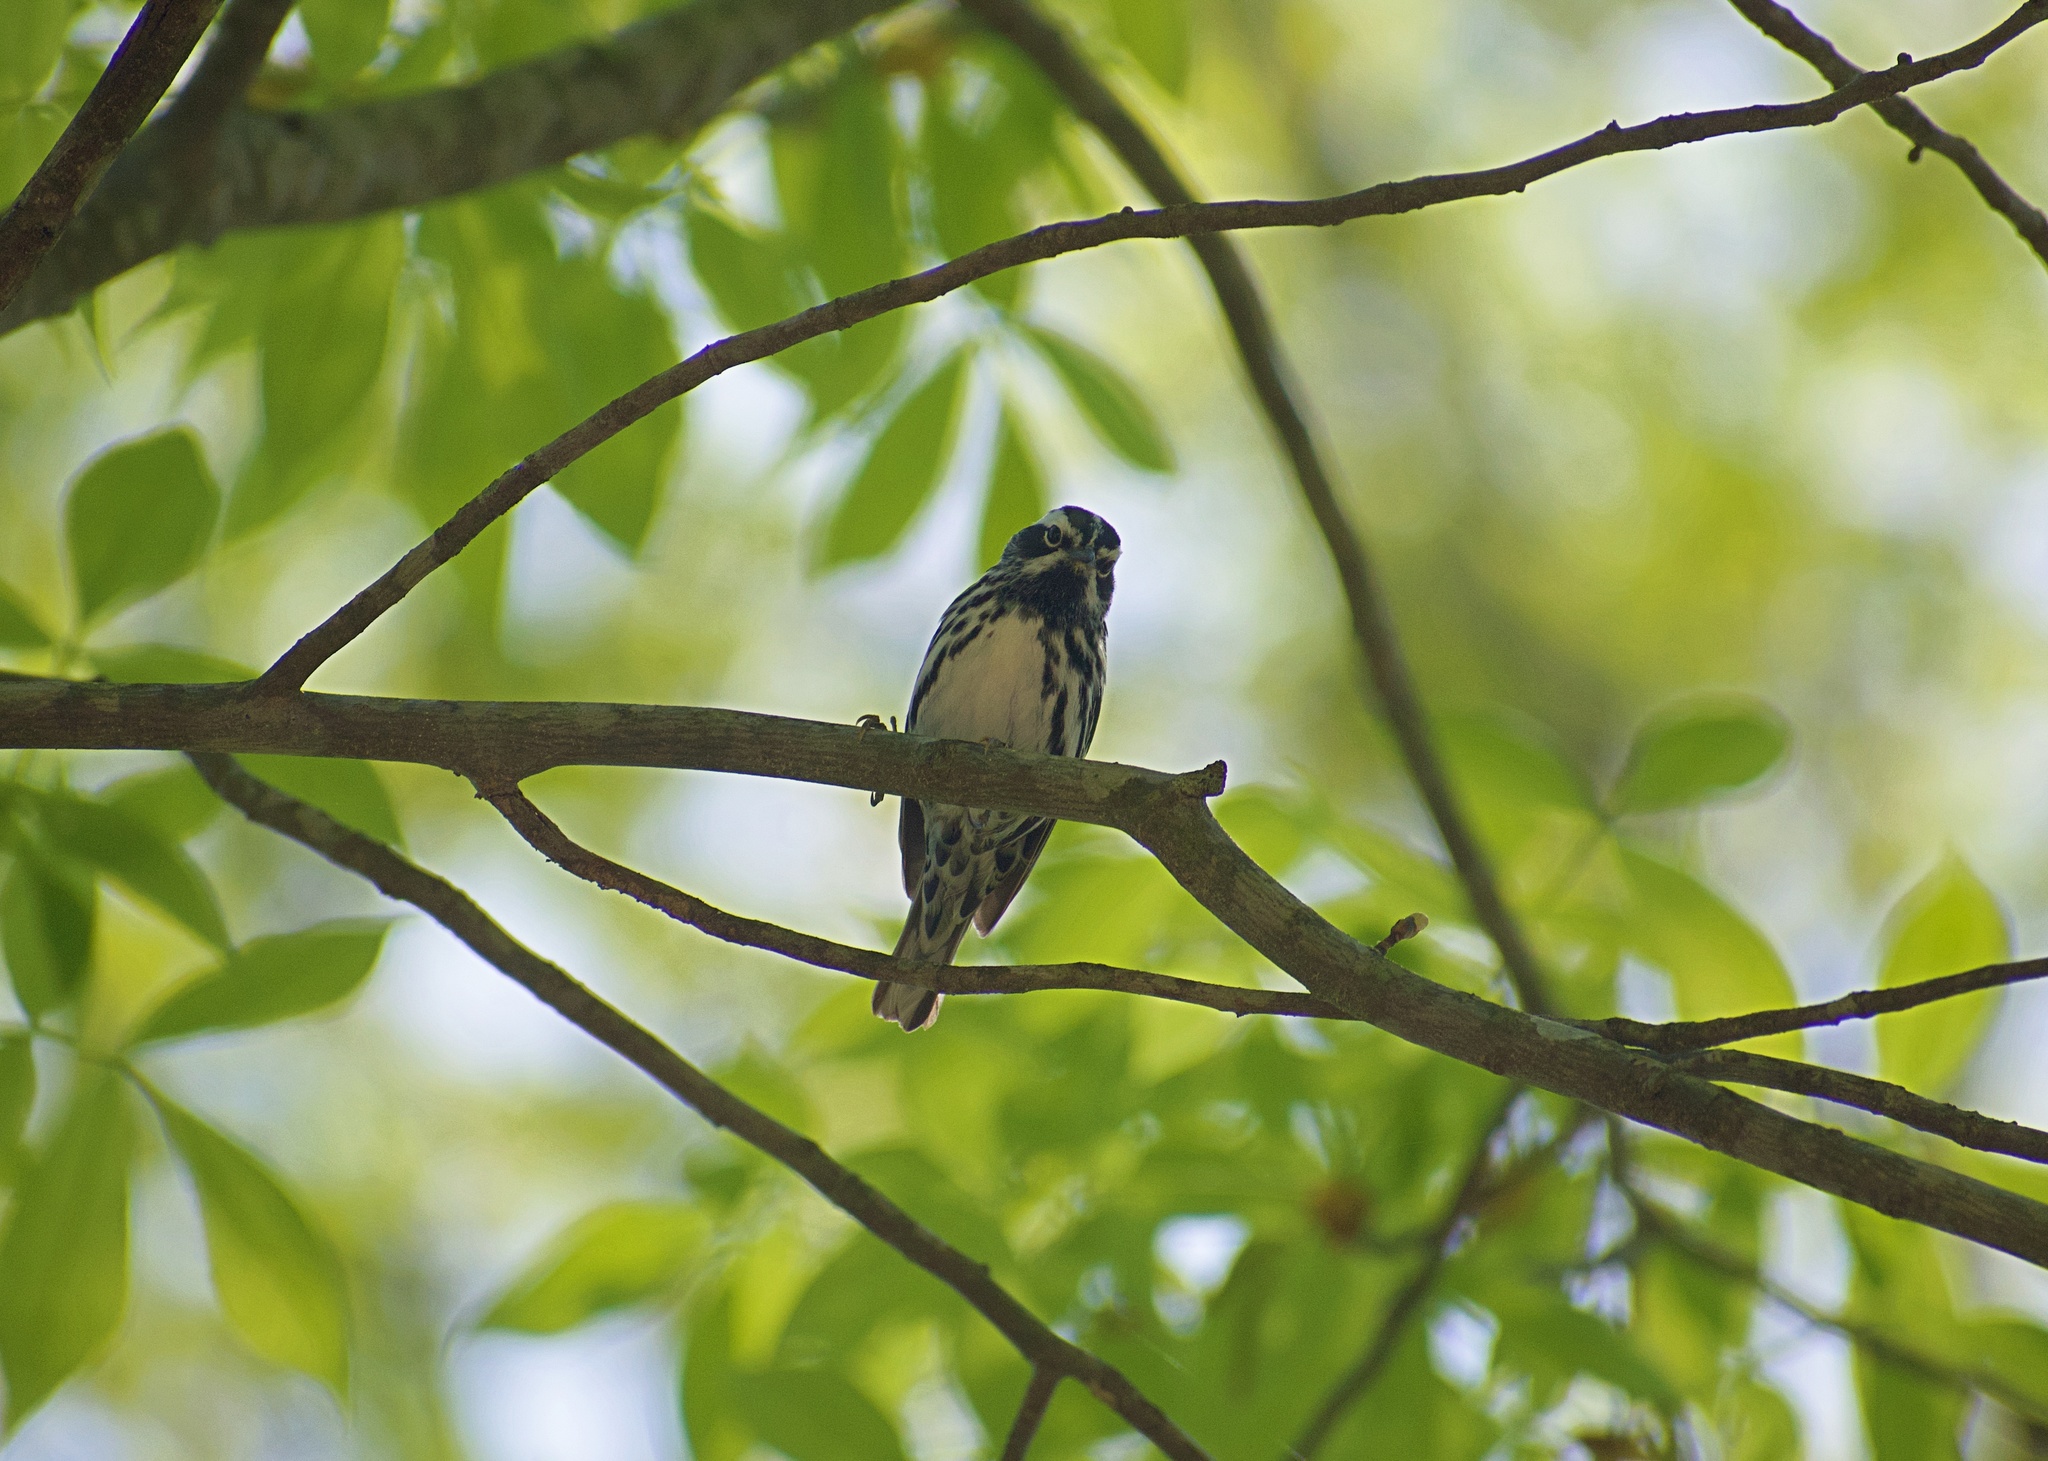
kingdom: Animalia
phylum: Chordata
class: Aves
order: Passeriformes
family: Parulidae
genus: Mniotilta
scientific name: Mniotilta varia
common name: Black-and-white warbler
